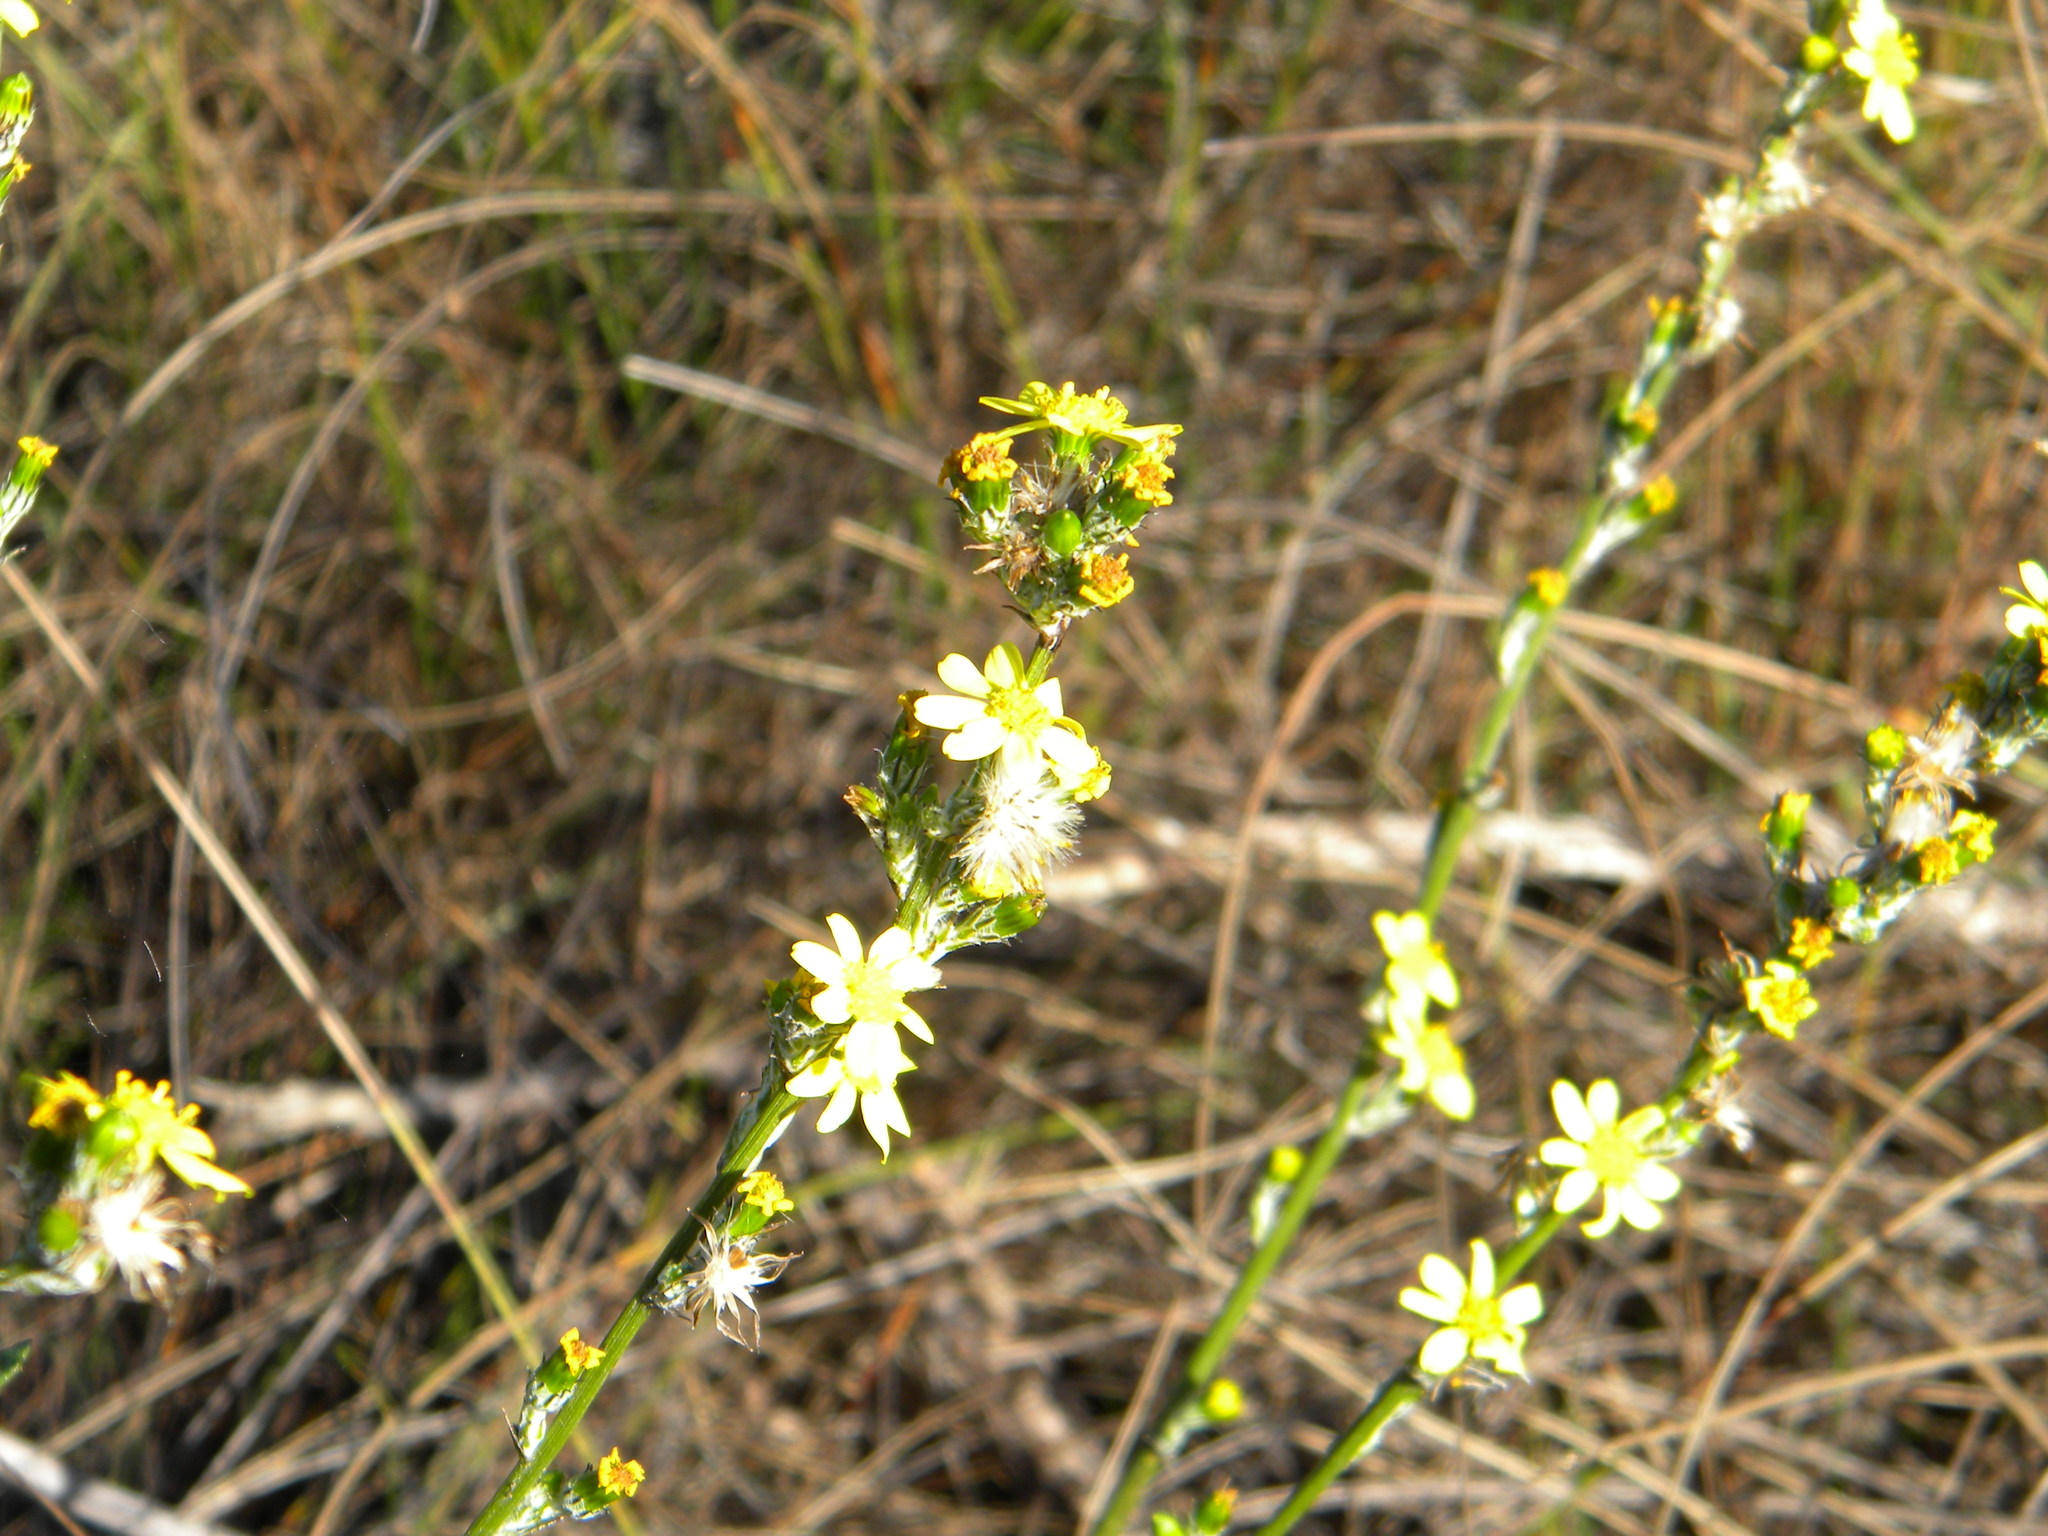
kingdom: Plantae
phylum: Tracheophyta
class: Magnoliopsida
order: Asterales
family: Asteraceae
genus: Senecio
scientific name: Senecio pubigerus
